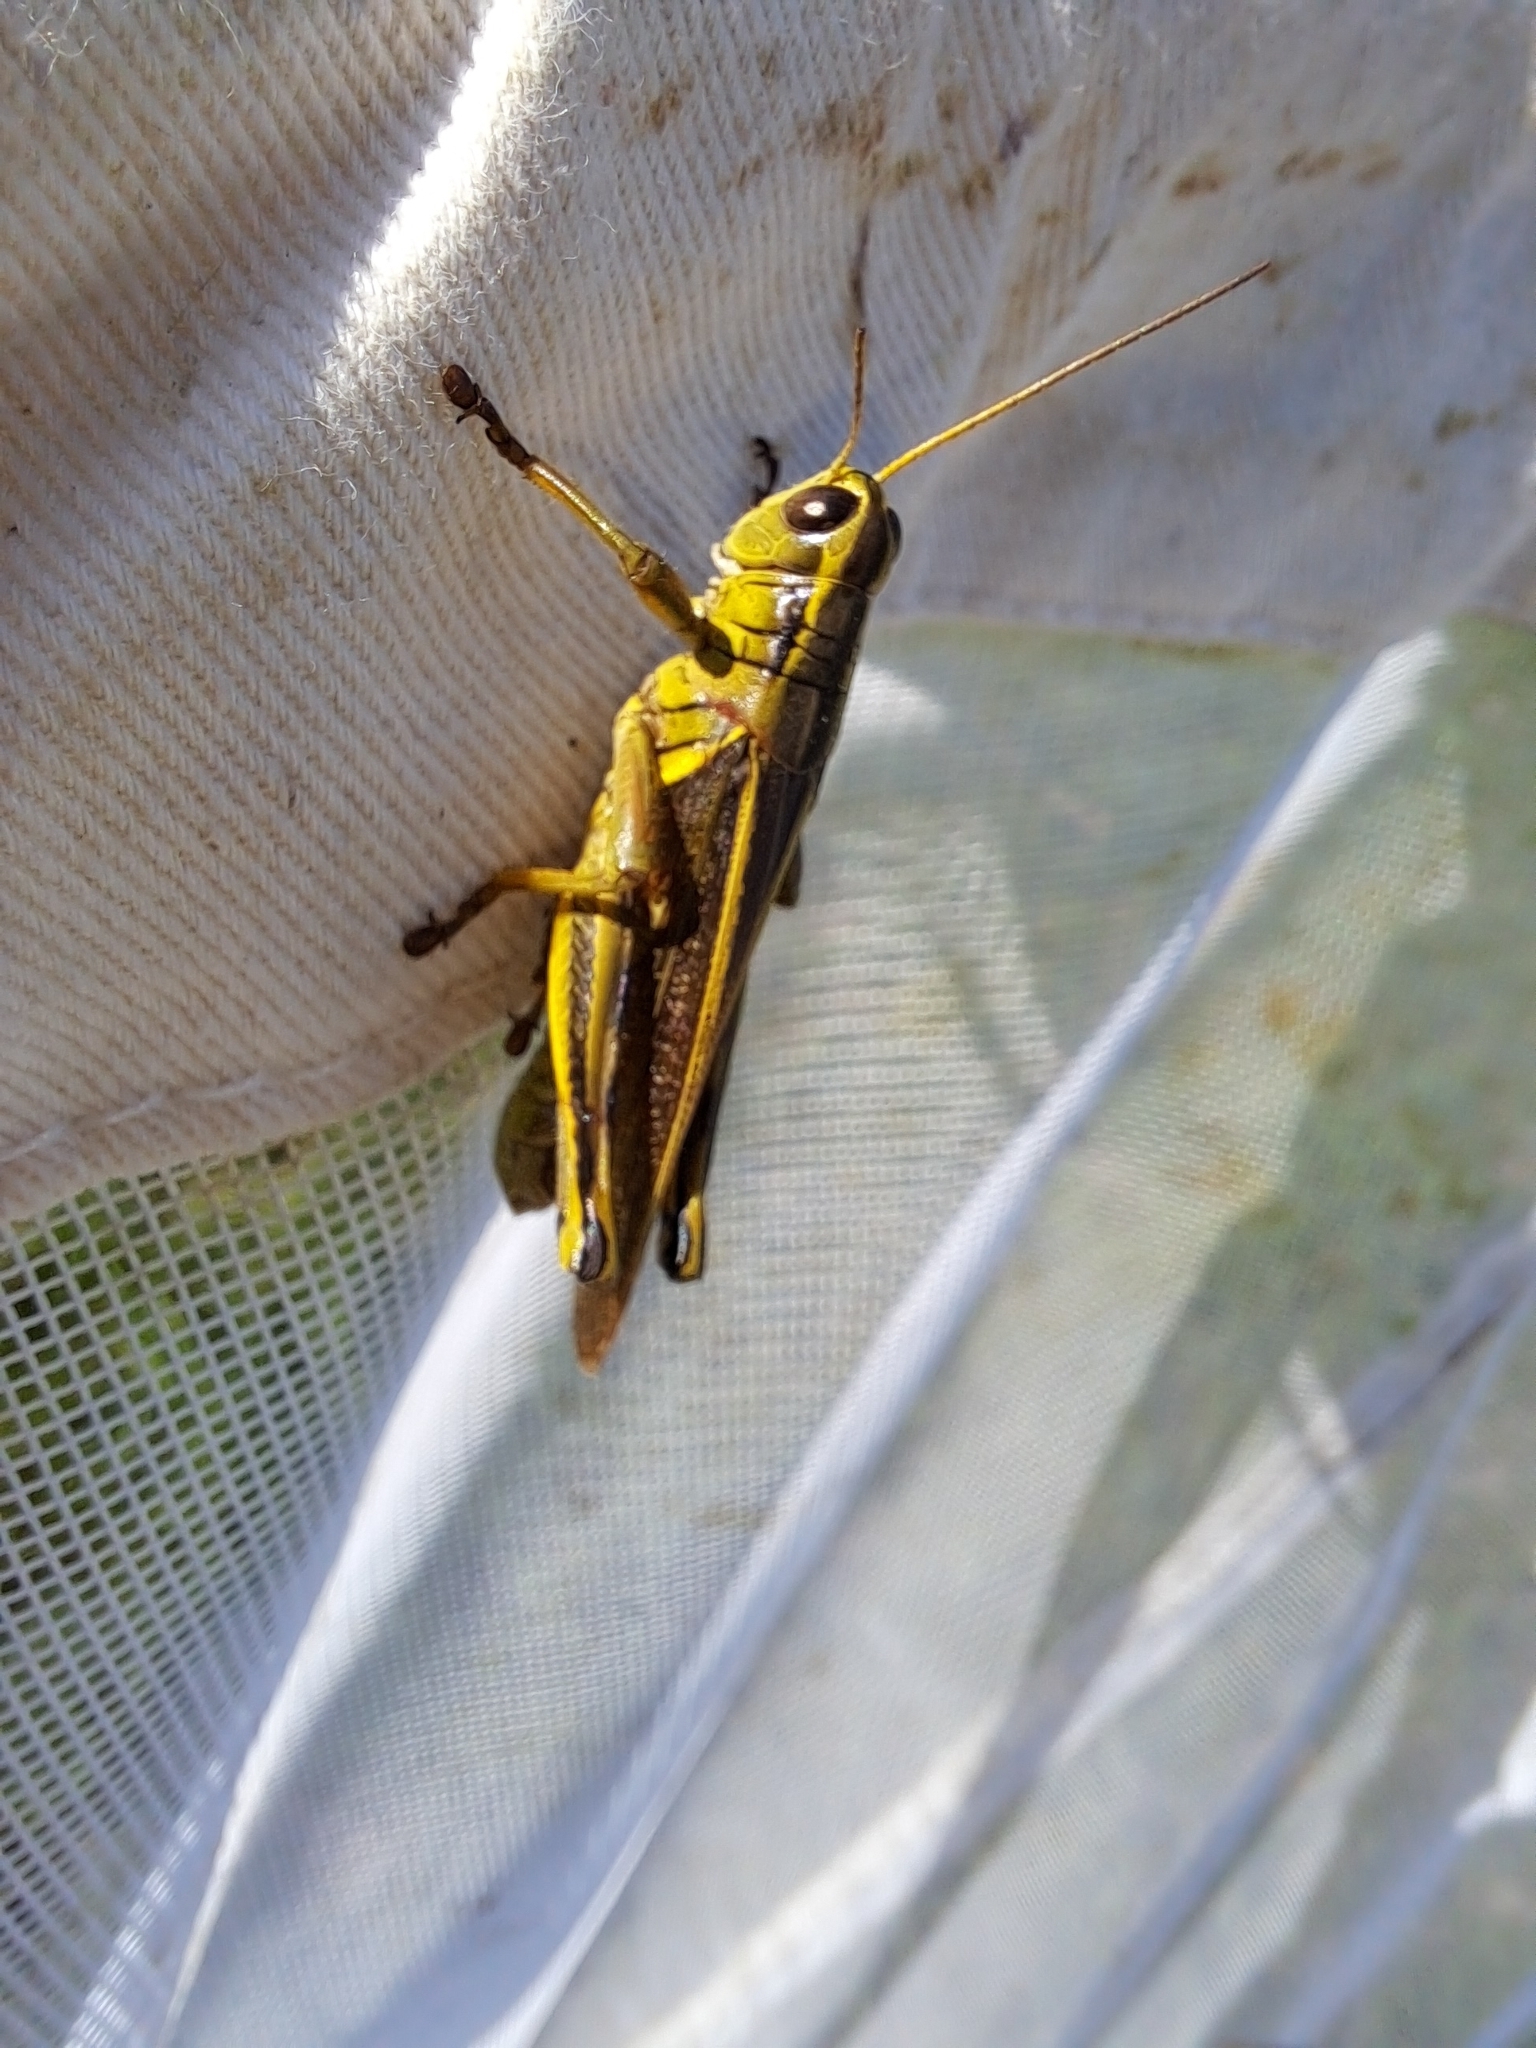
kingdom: Animalia
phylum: Arthropoda
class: Insecta
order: Orthoptera
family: Acrididae
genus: Melanoplus
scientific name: Melanoplus bivittatus
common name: Two-striped grasshopper
